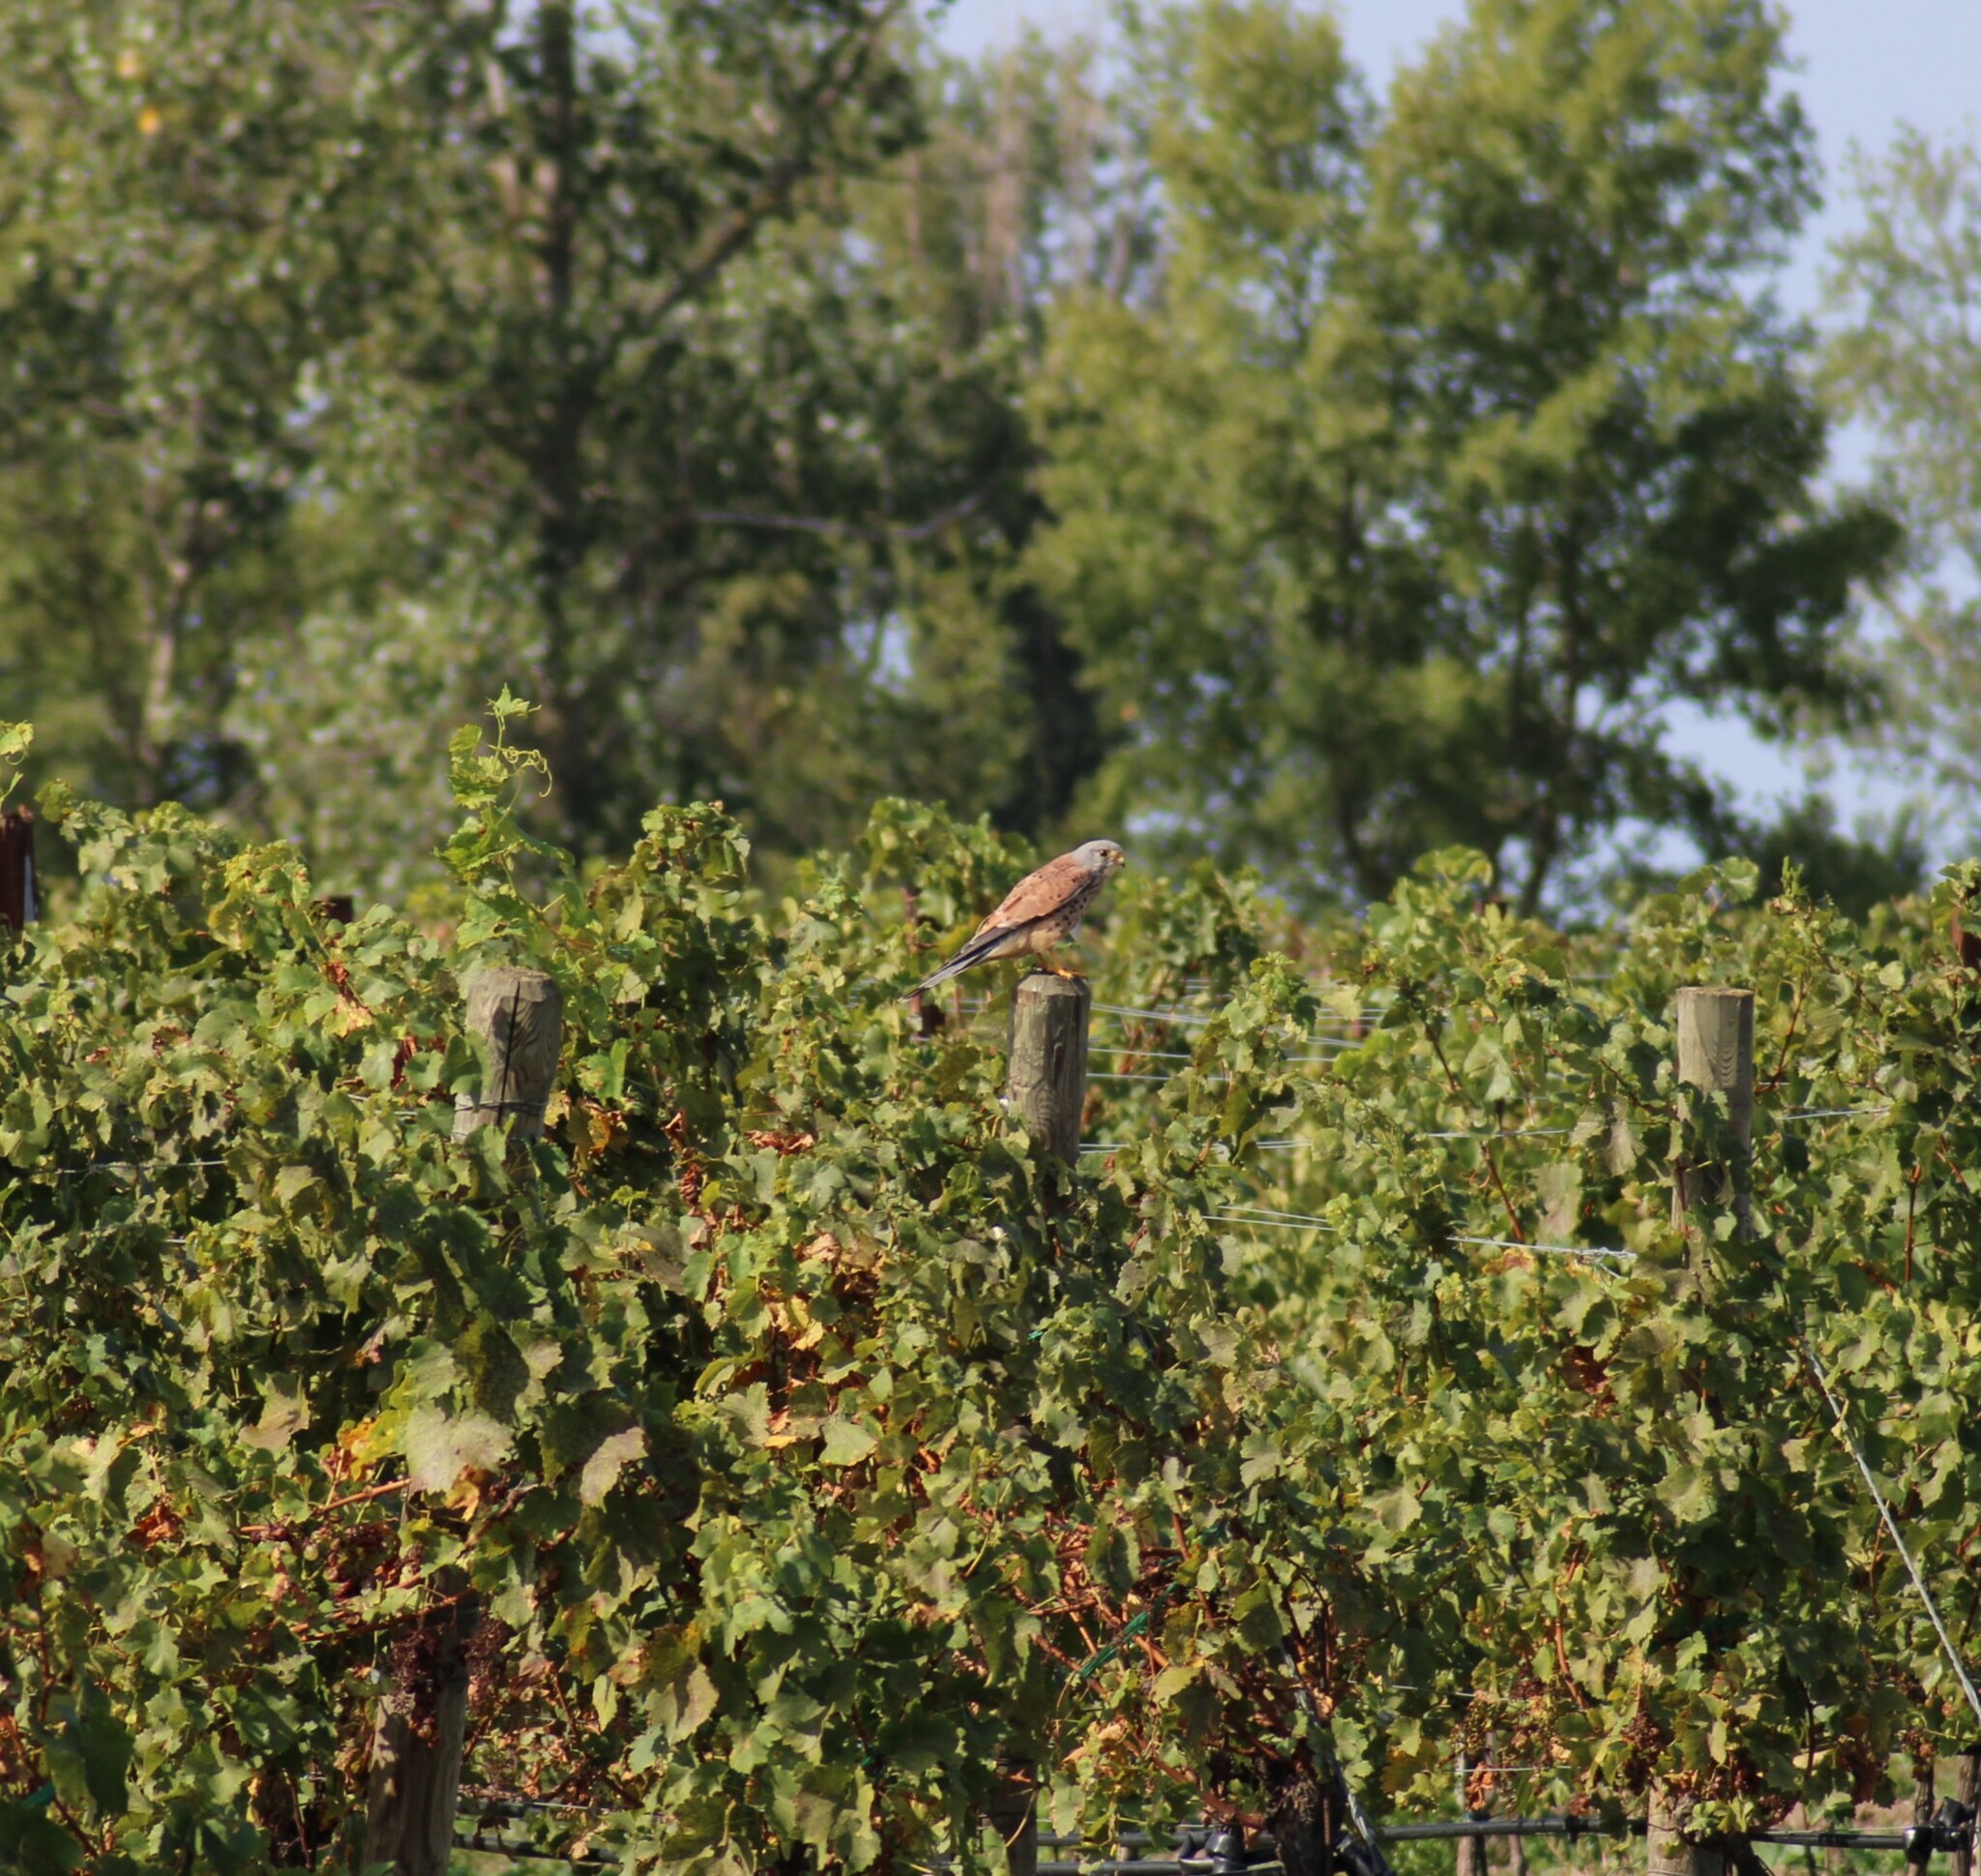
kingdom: Animalia
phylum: Chordata
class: Aves
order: Falconiformes
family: Falconidae
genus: Falco
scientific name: Falco tinnunculus
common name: Common kestrel
